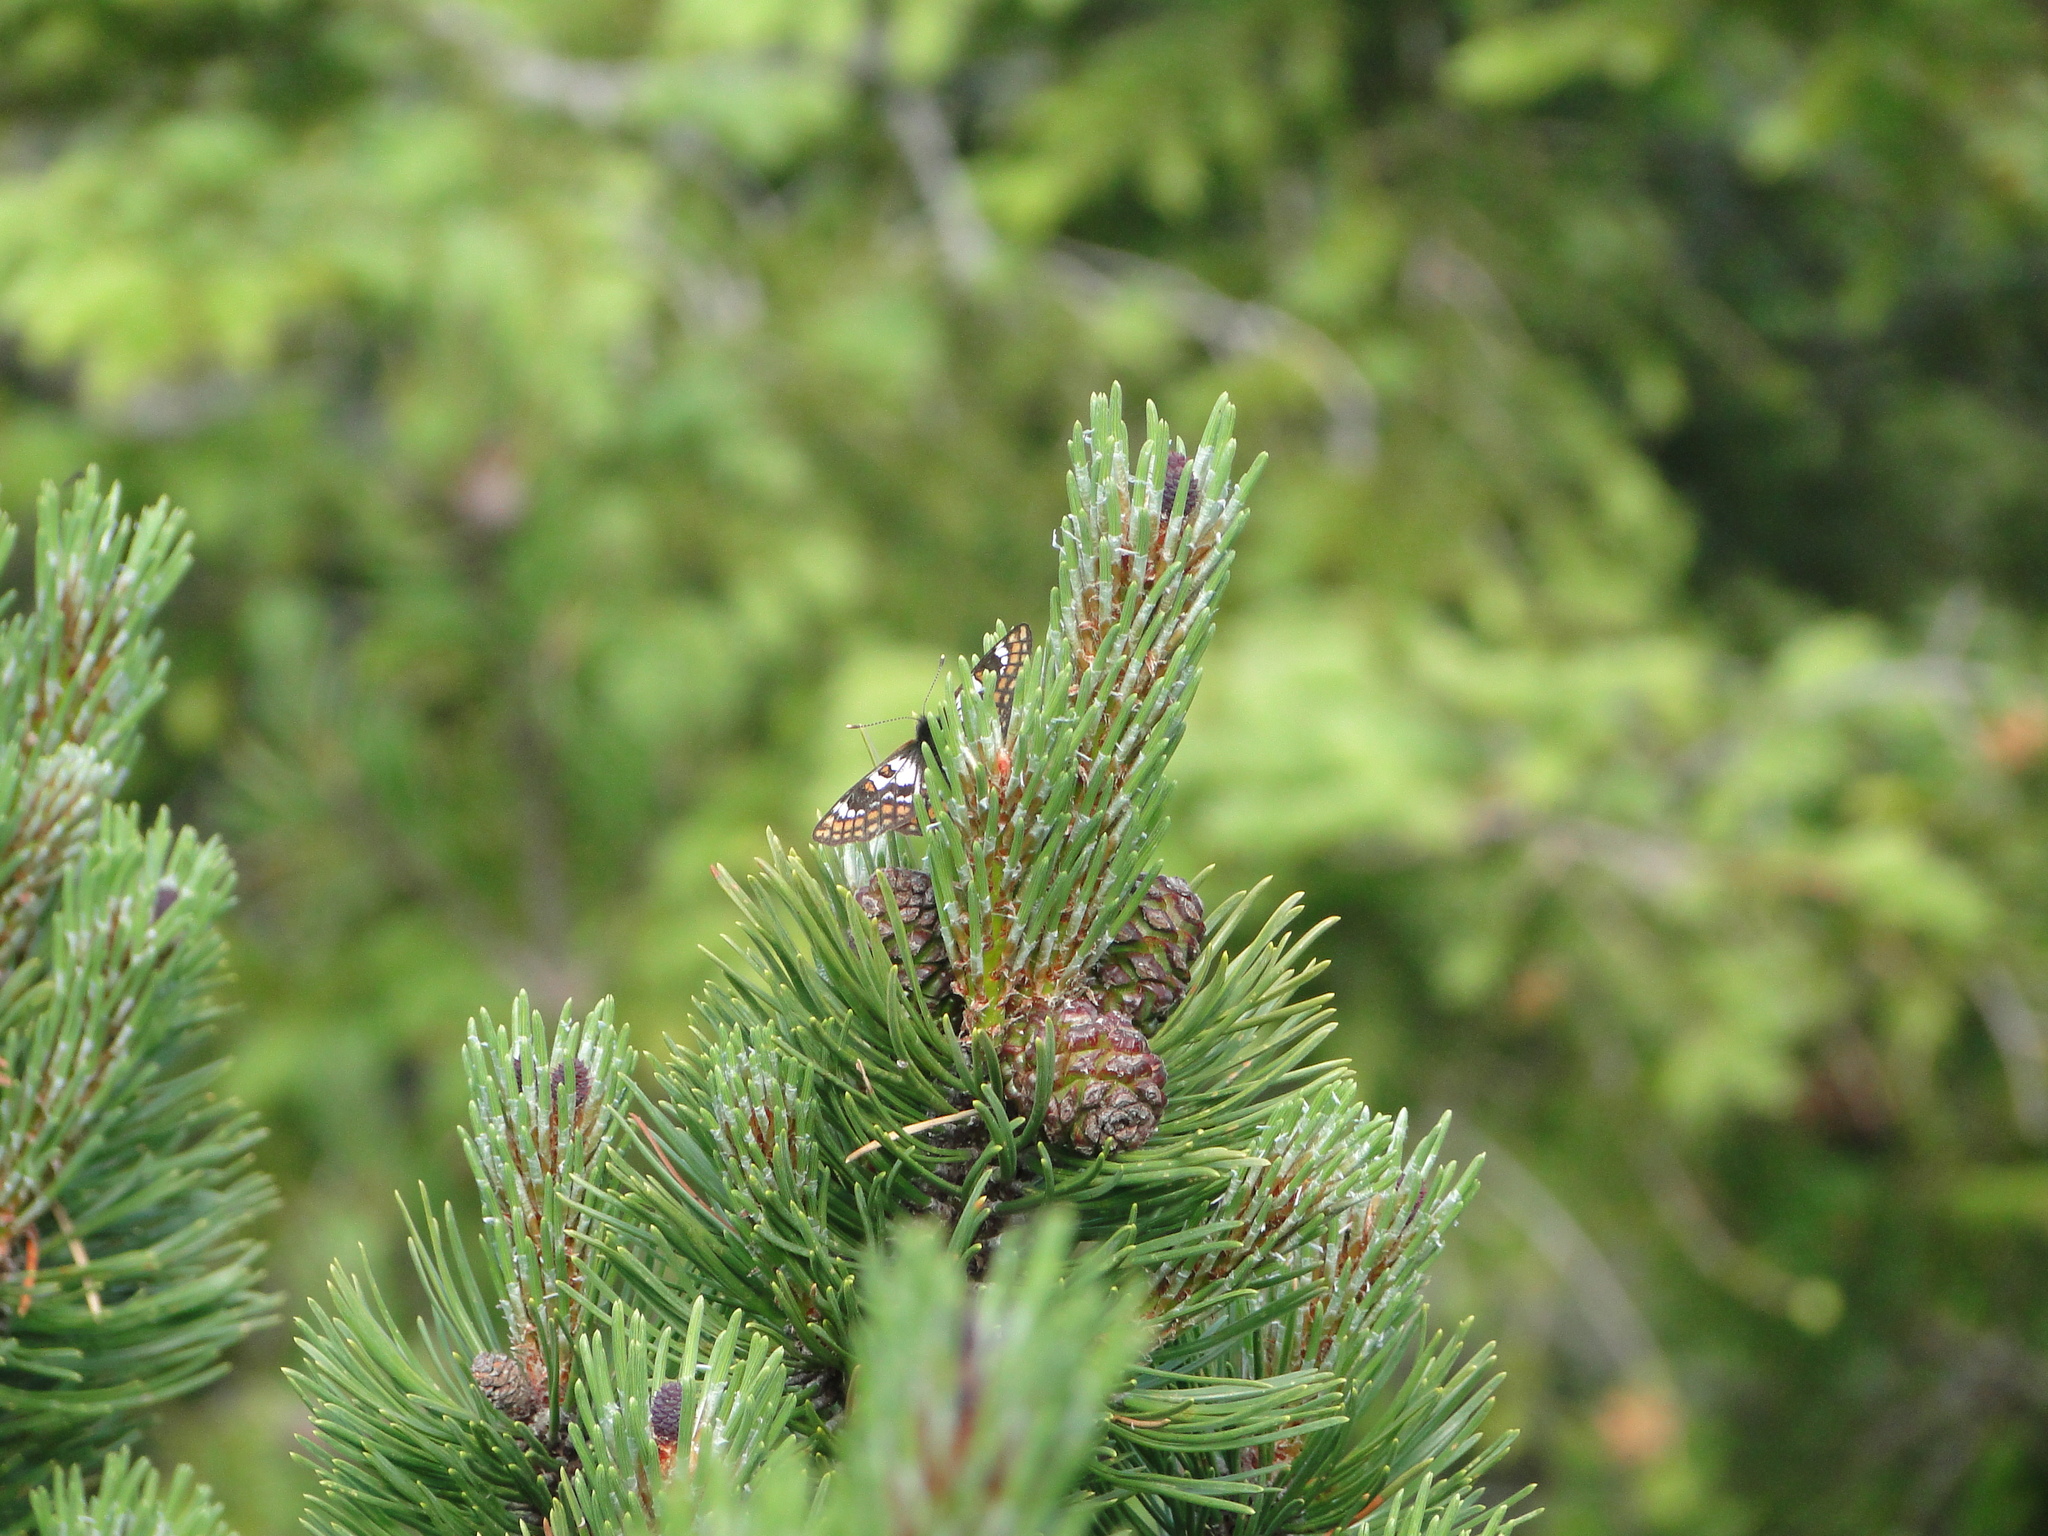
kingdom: Animalia
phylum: Arthropoda
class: Insecta
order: Lepidoptera
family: Nymphalidae
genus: Hypodryas
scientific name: Hypodryas cynthia
